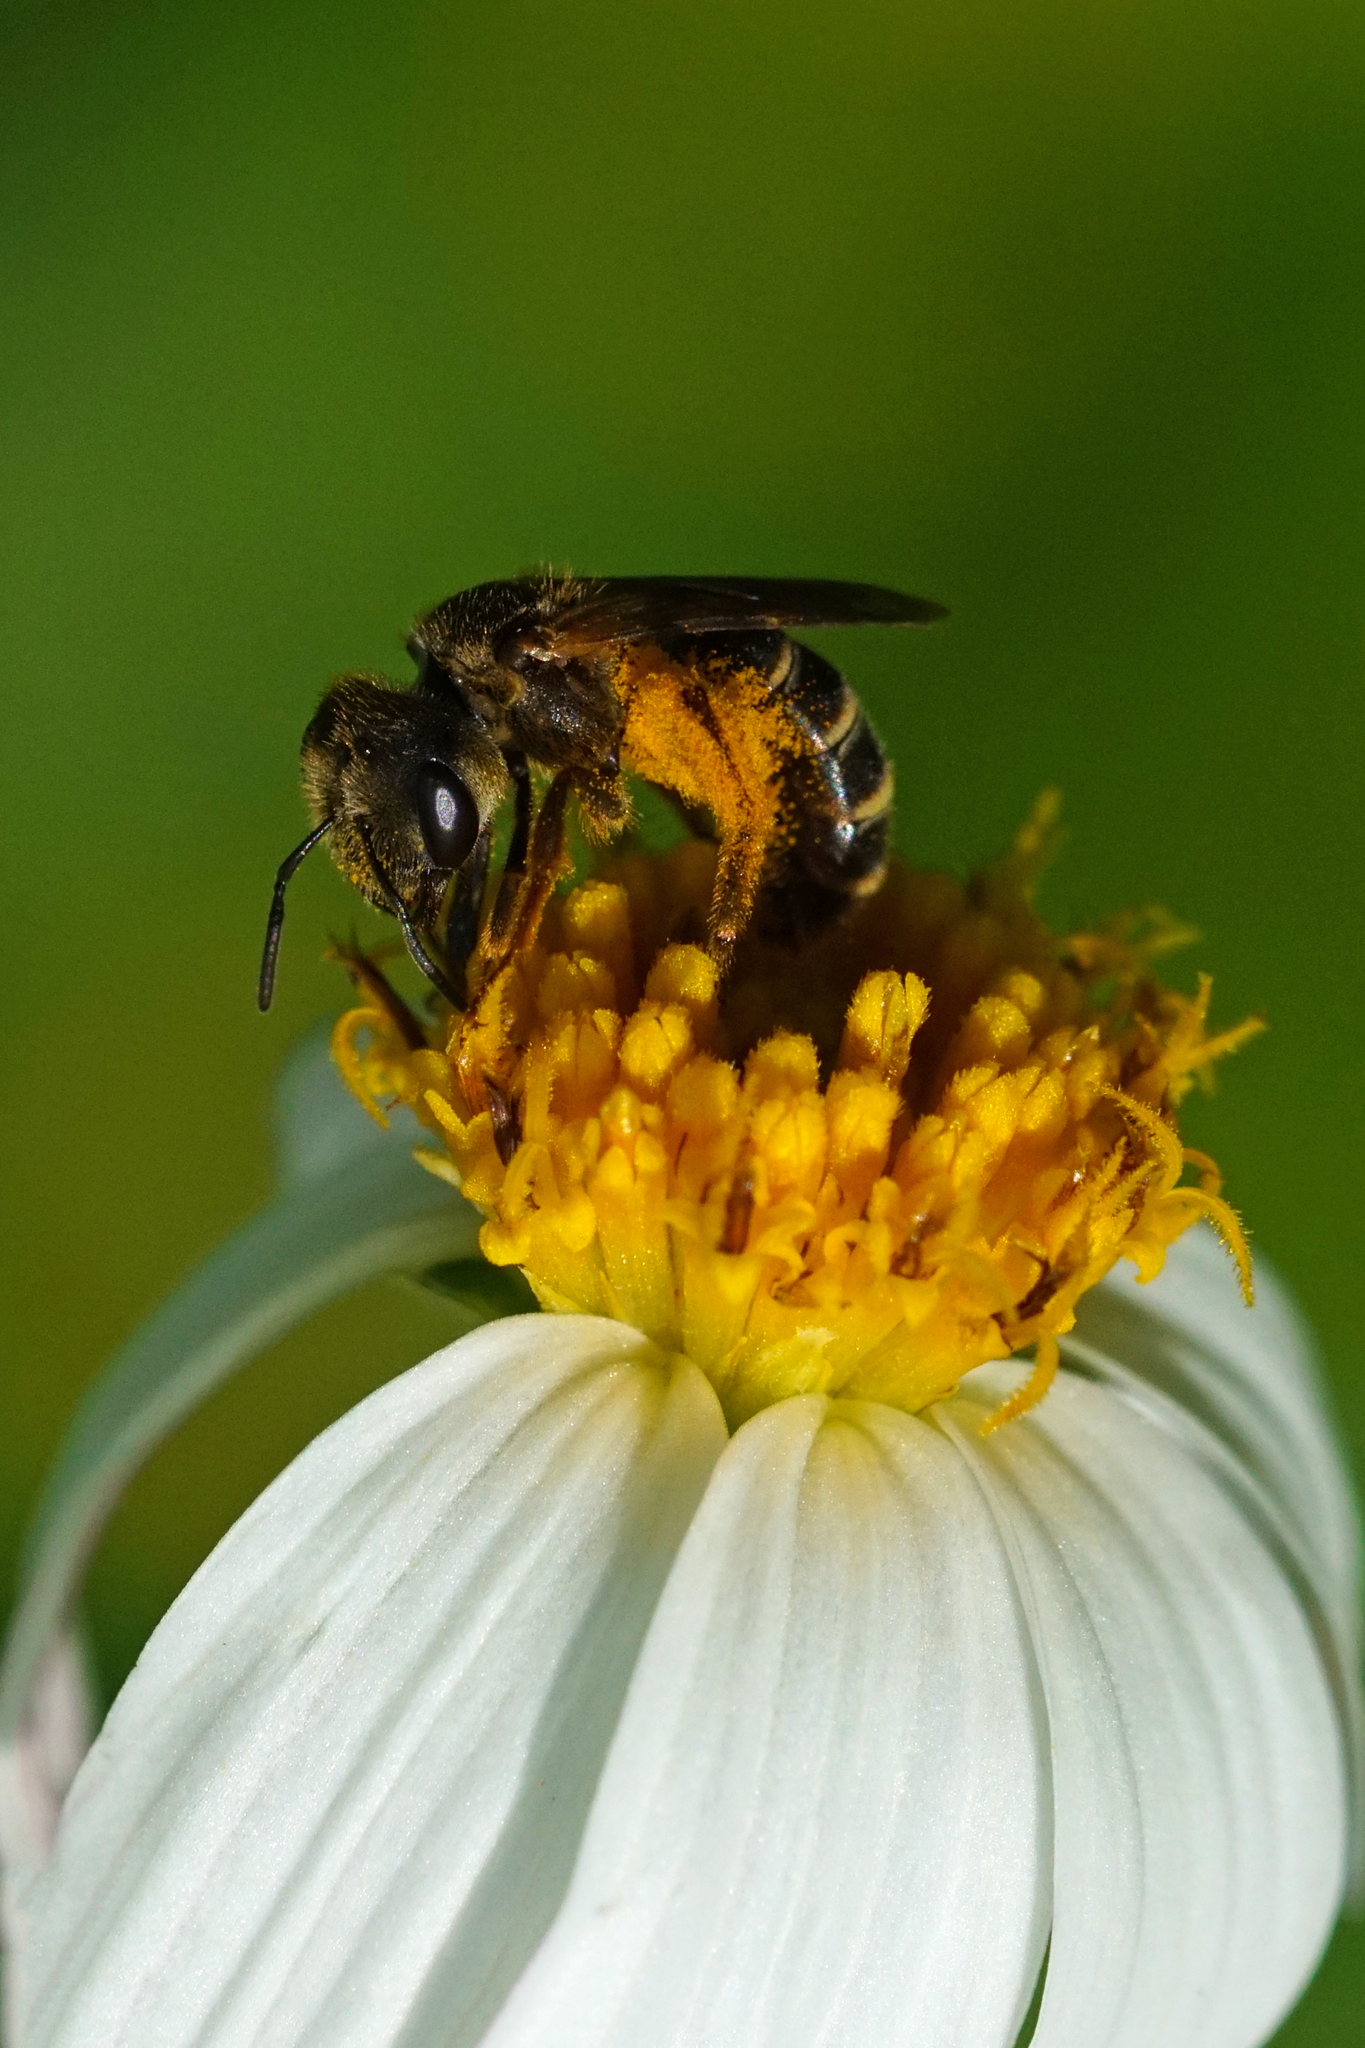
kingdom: Animalia
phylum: Arthropoda
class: Insecta
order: Hymenoptera
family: Halictidae
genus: Halictus
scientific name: Halictus poeyi
